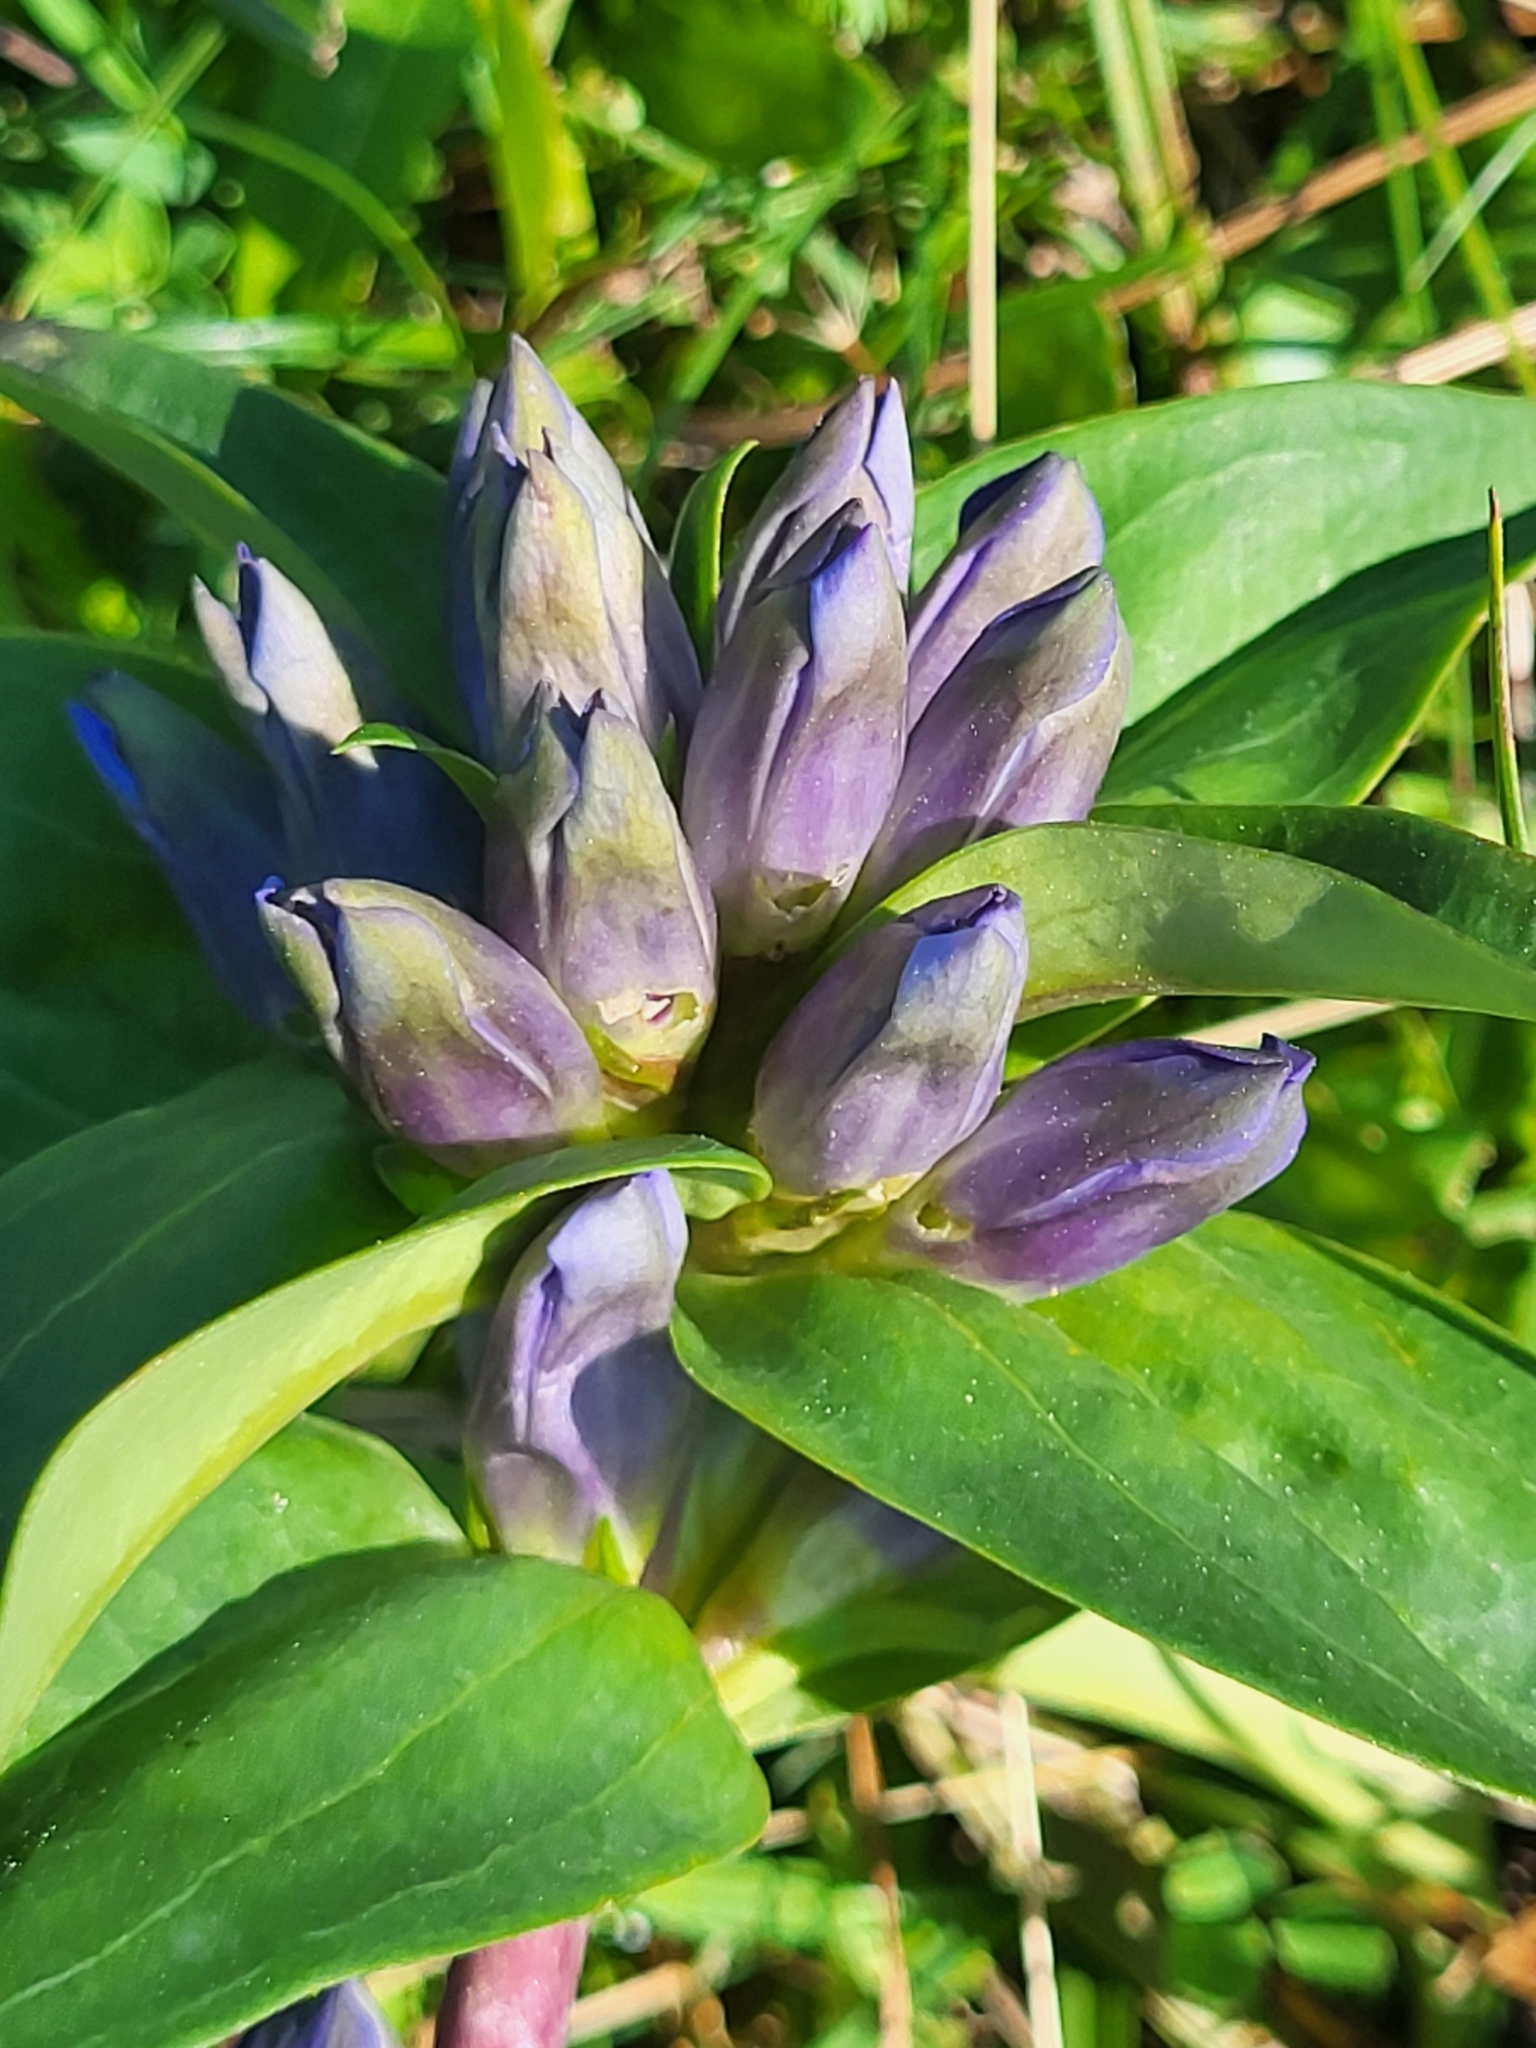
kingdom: Plantae
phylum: Tracheophyta
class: Magnoliopsida
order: Gentianales
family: Gentianaceae
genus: Gentiana
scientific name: Gentiana cruciata
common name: Cross gentian
